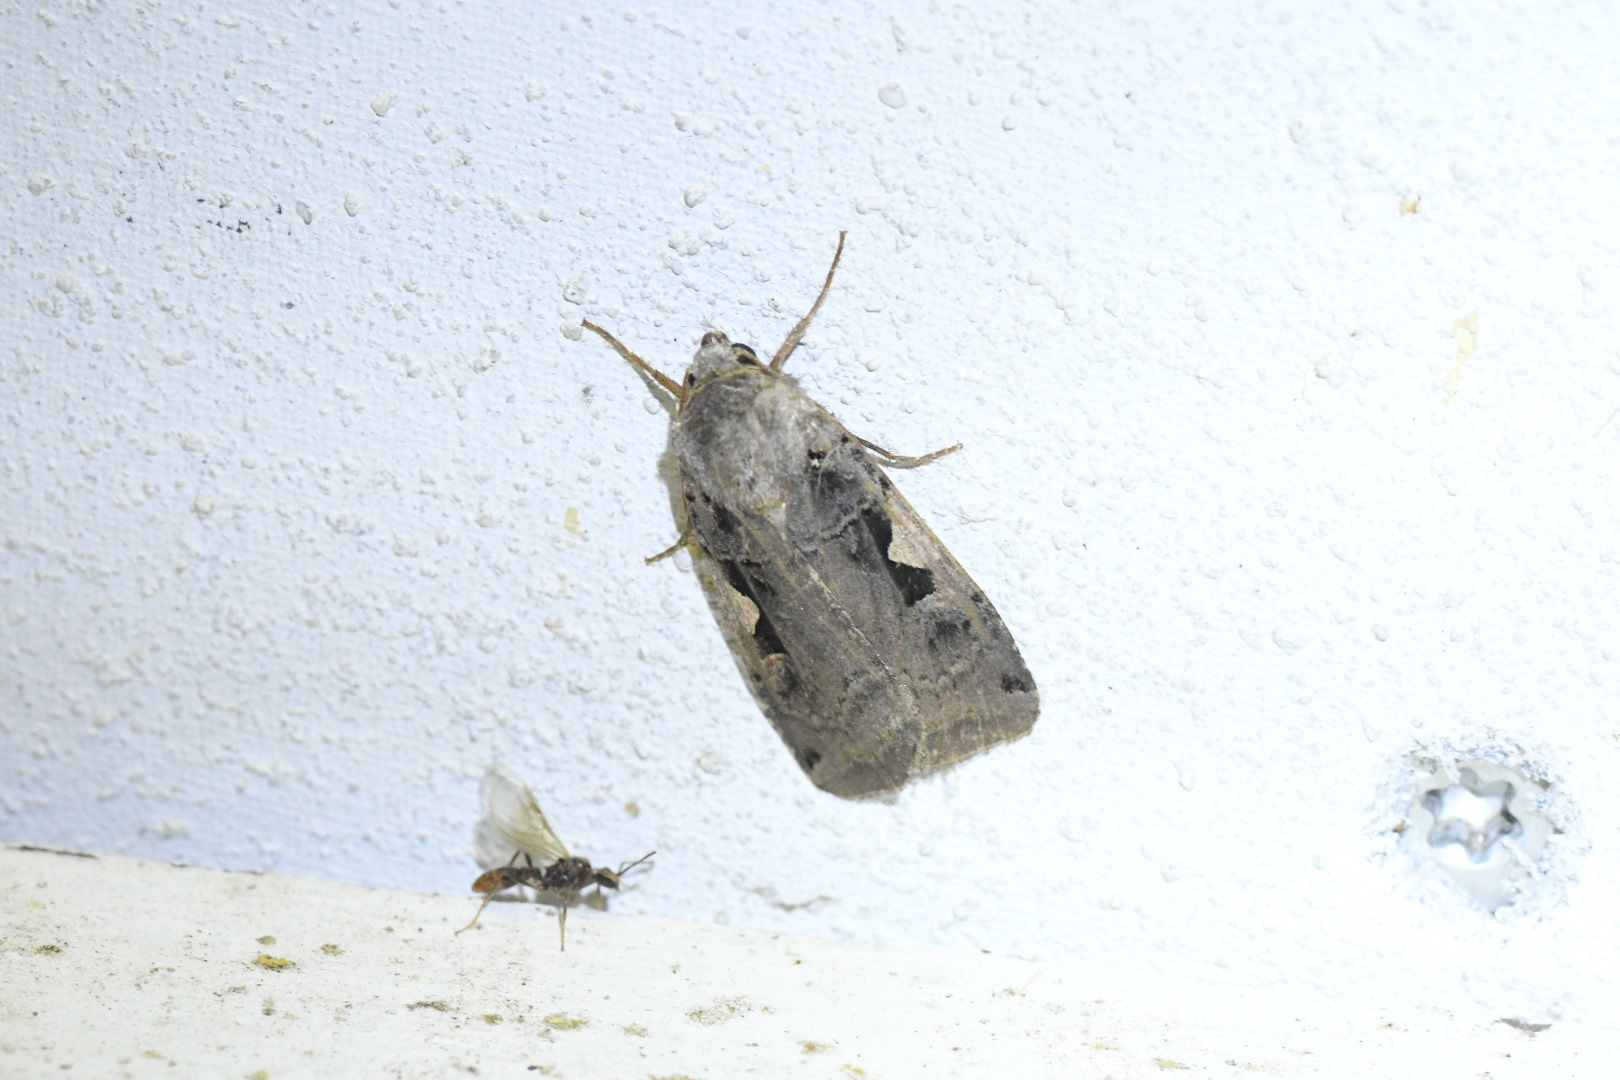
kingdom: Animalia
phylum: Arthropoda
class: Insecta
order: Lepidoptera
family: Noctuidae
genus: Xestia
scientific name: Xestia c-nigrum
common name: Setaceous hebrew character
